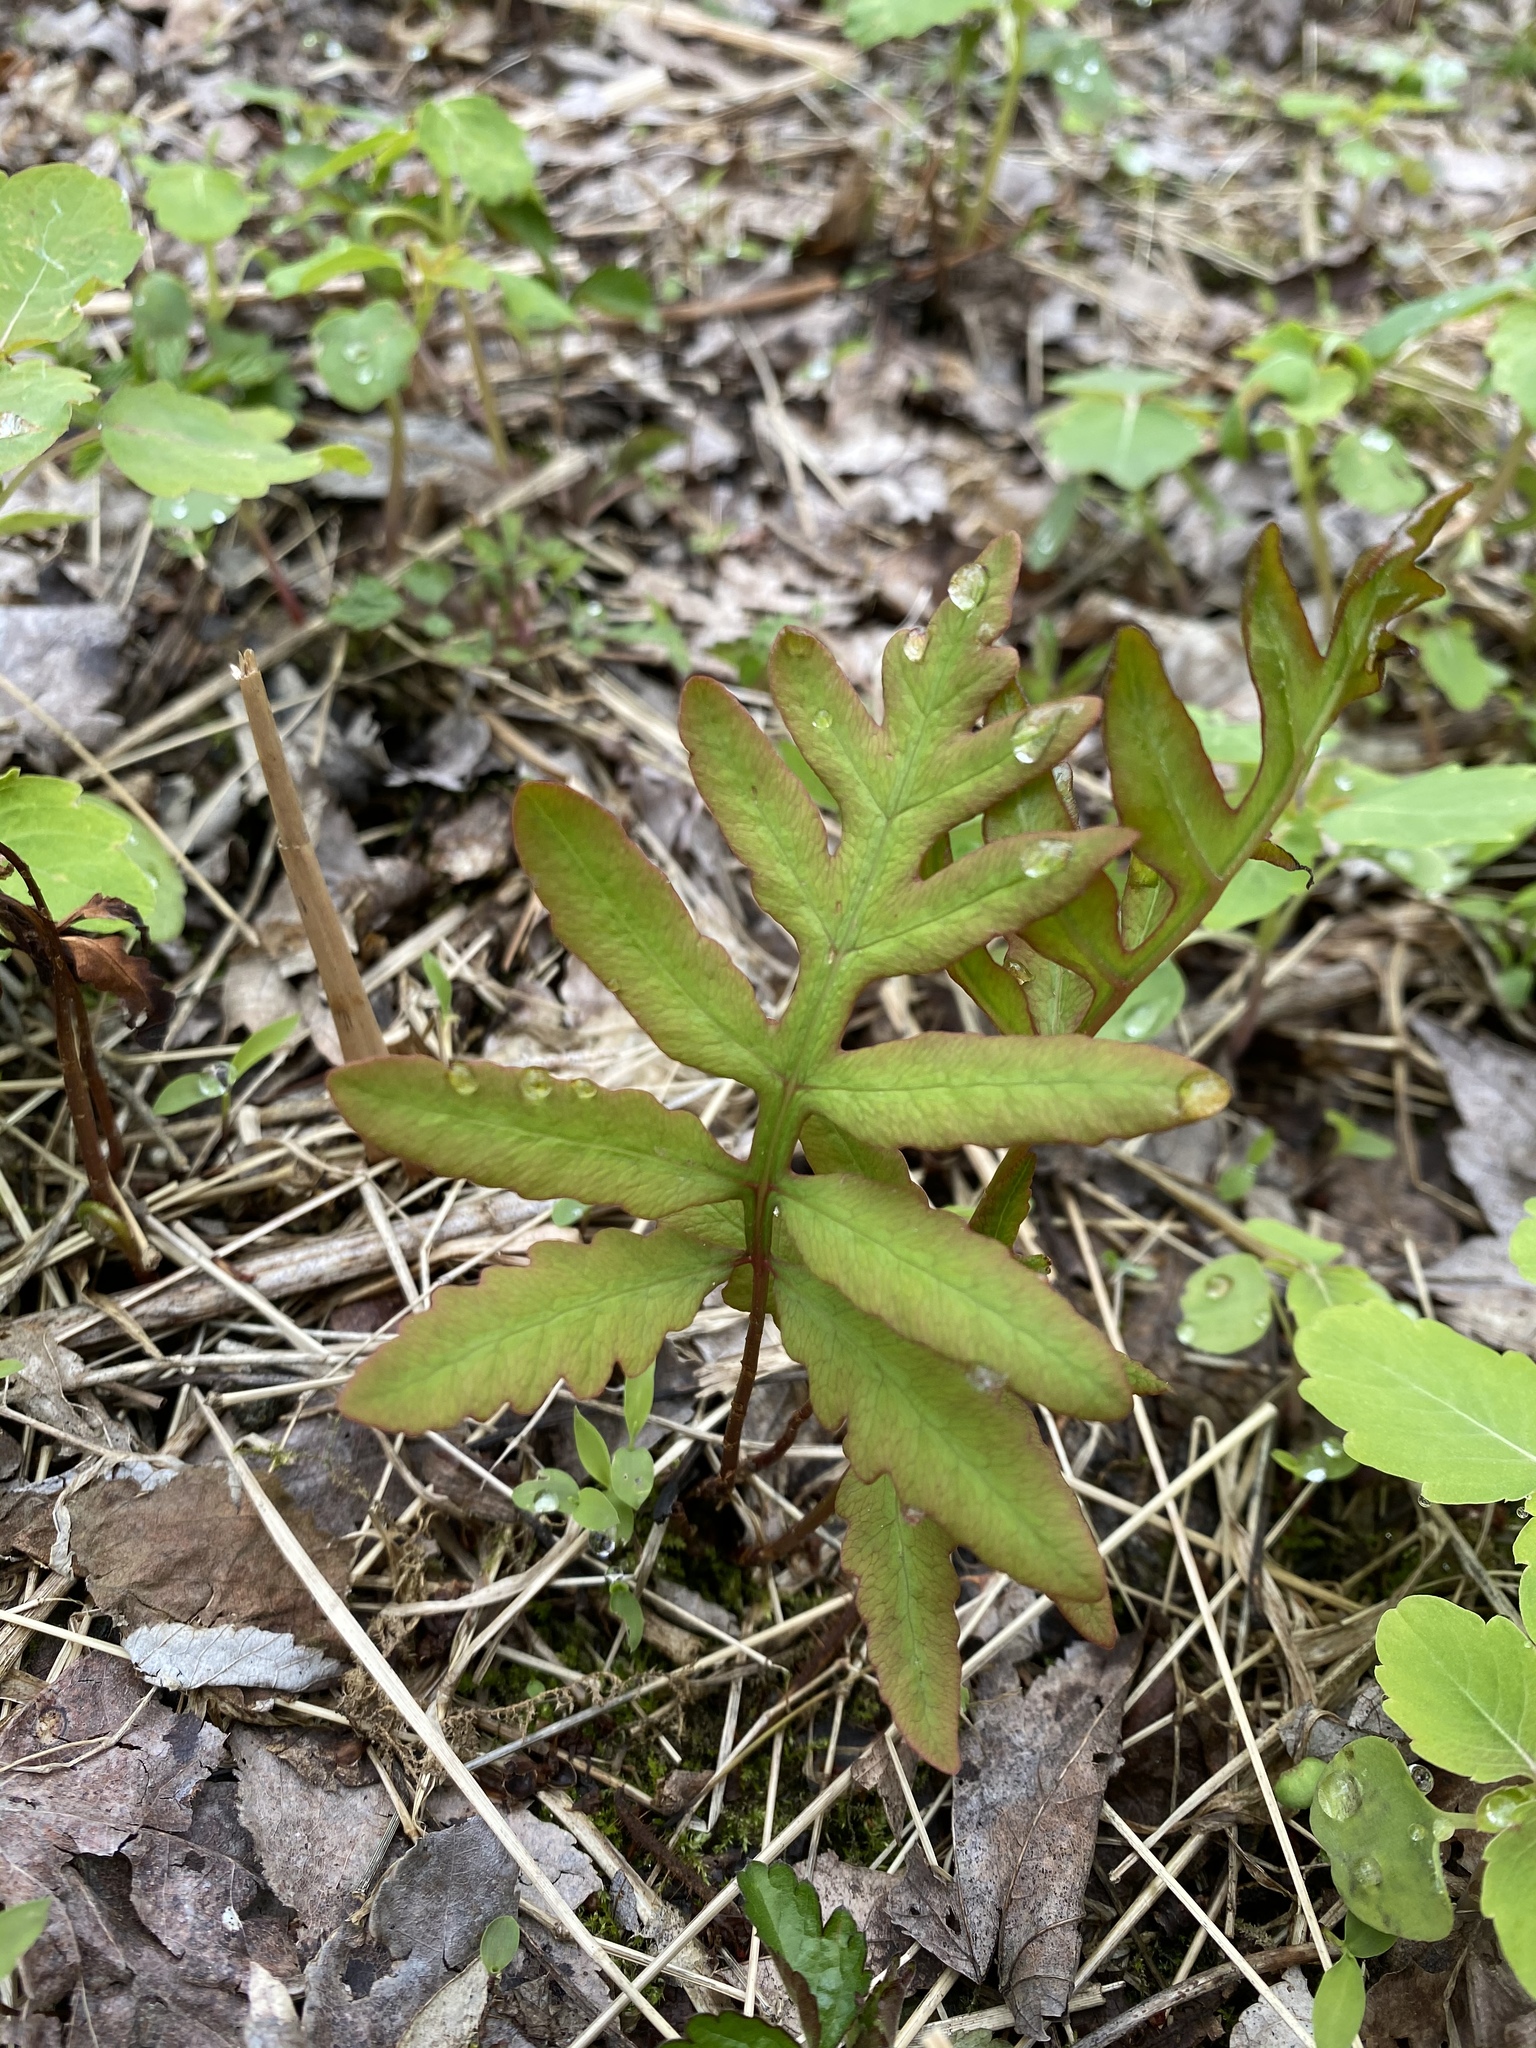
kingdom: Plantae
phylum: Tracheophyta
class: Polypodiopsida
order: Polypodiales
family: Onocleaceae
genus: Onoclea
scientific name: Onoclea sensibilis
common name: Sensitive fern
